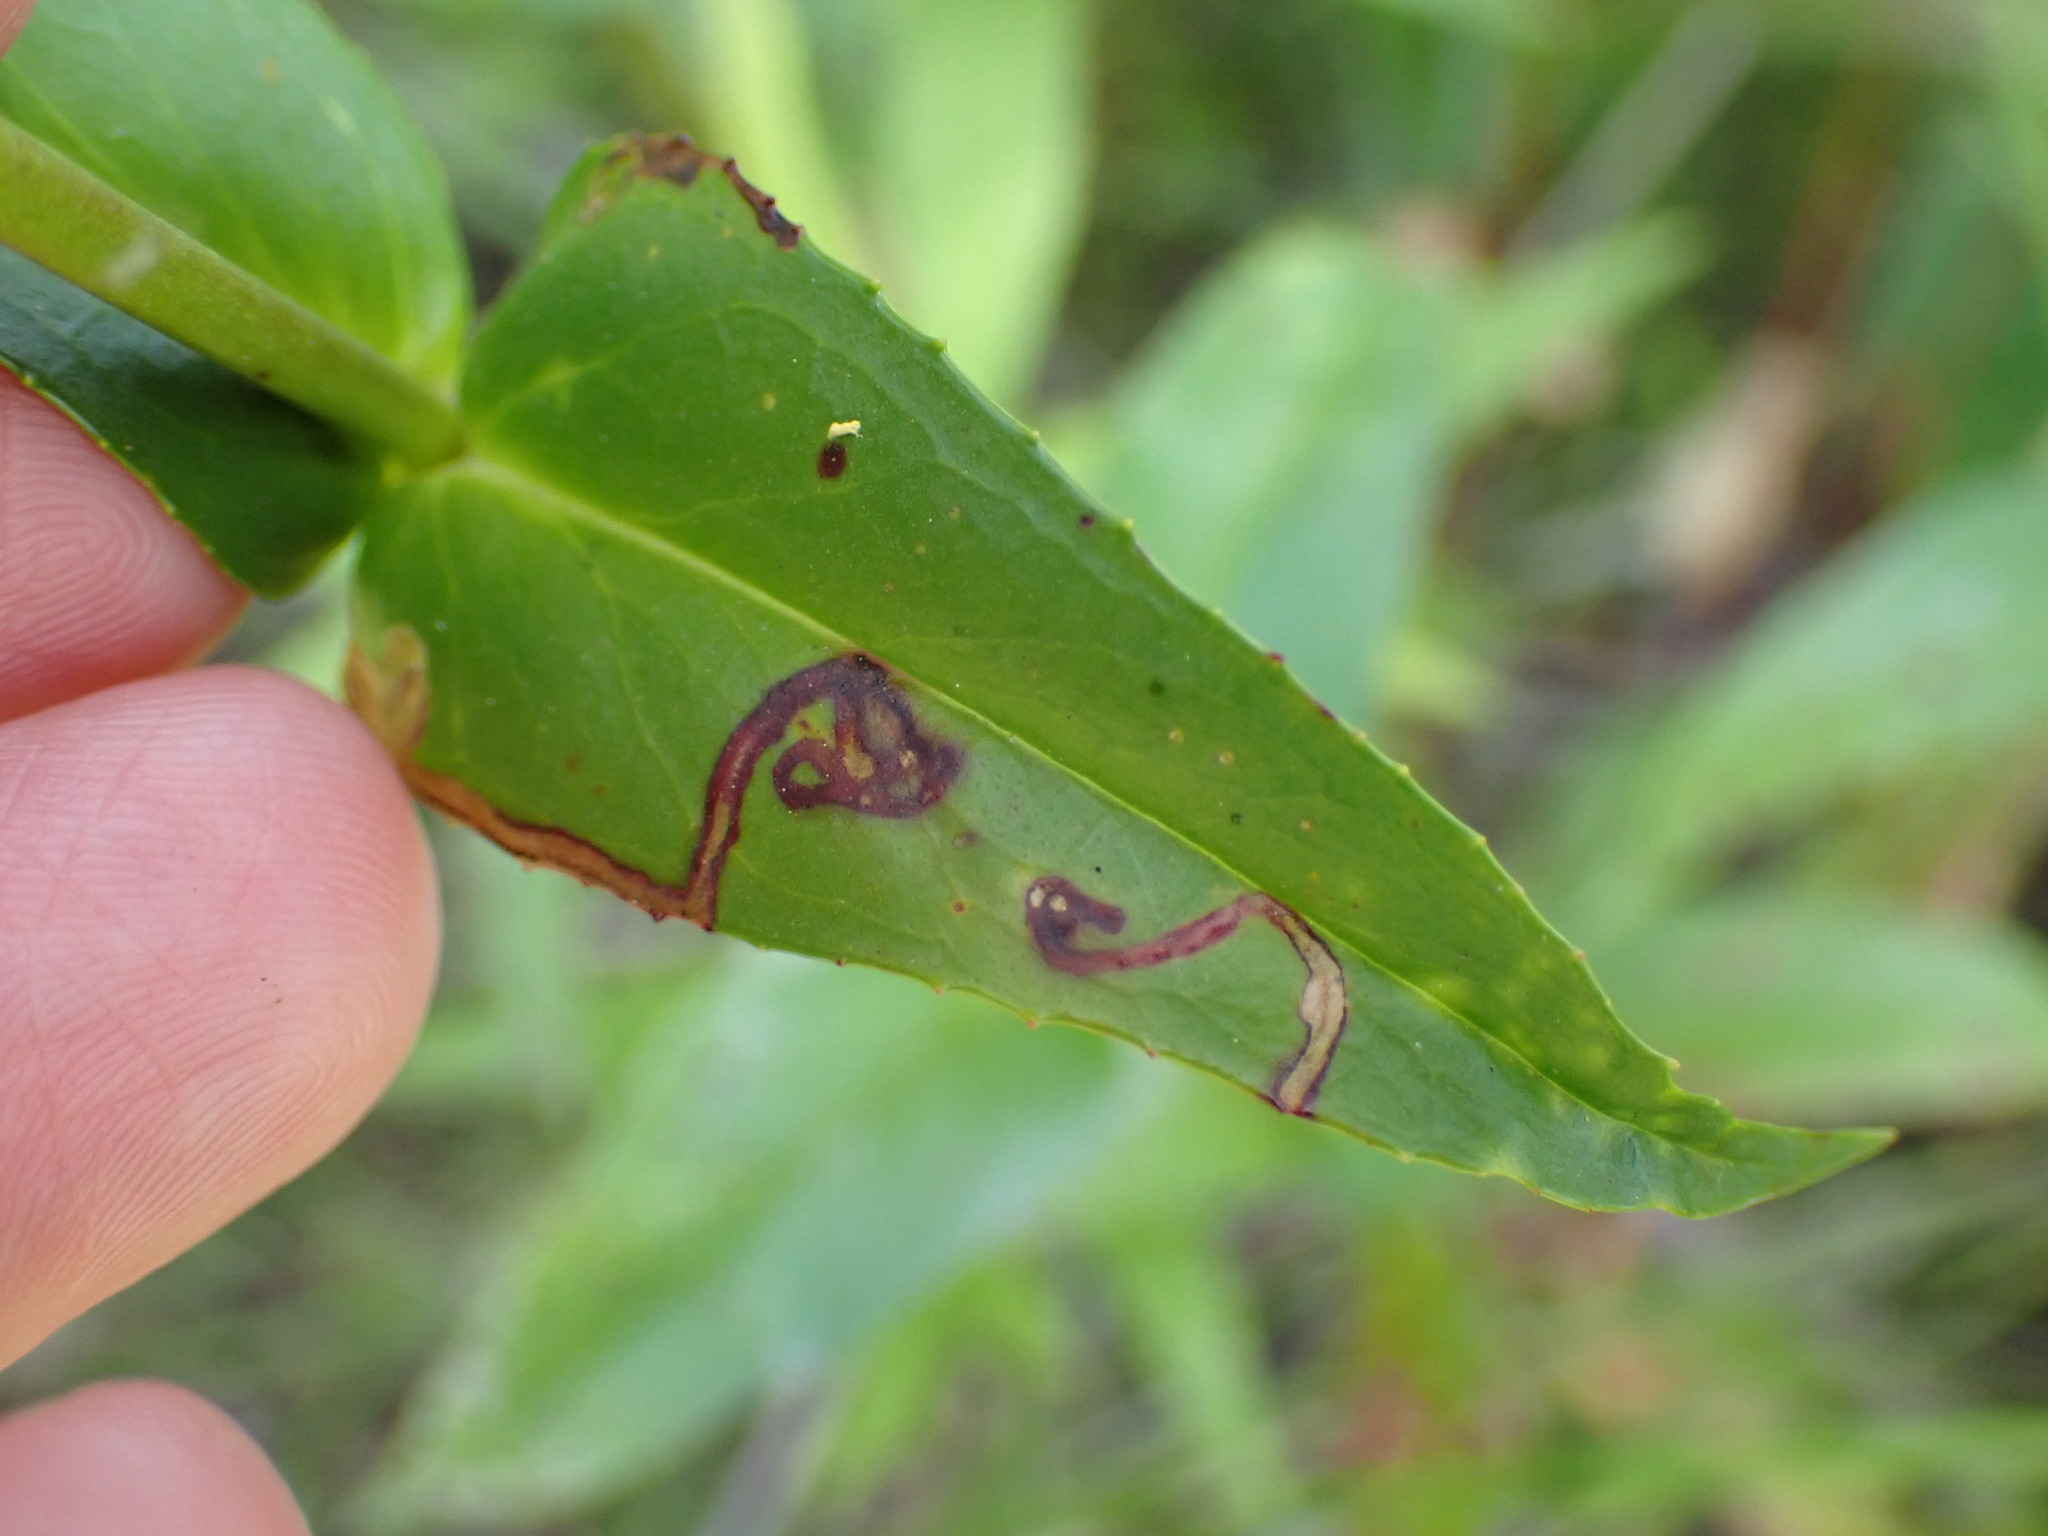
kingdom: Animalia
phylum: Arthropoda
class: Insecta
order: Diptera
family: Agromyzidae
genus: Phytomyza
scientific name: Phytomyza penstemonis
